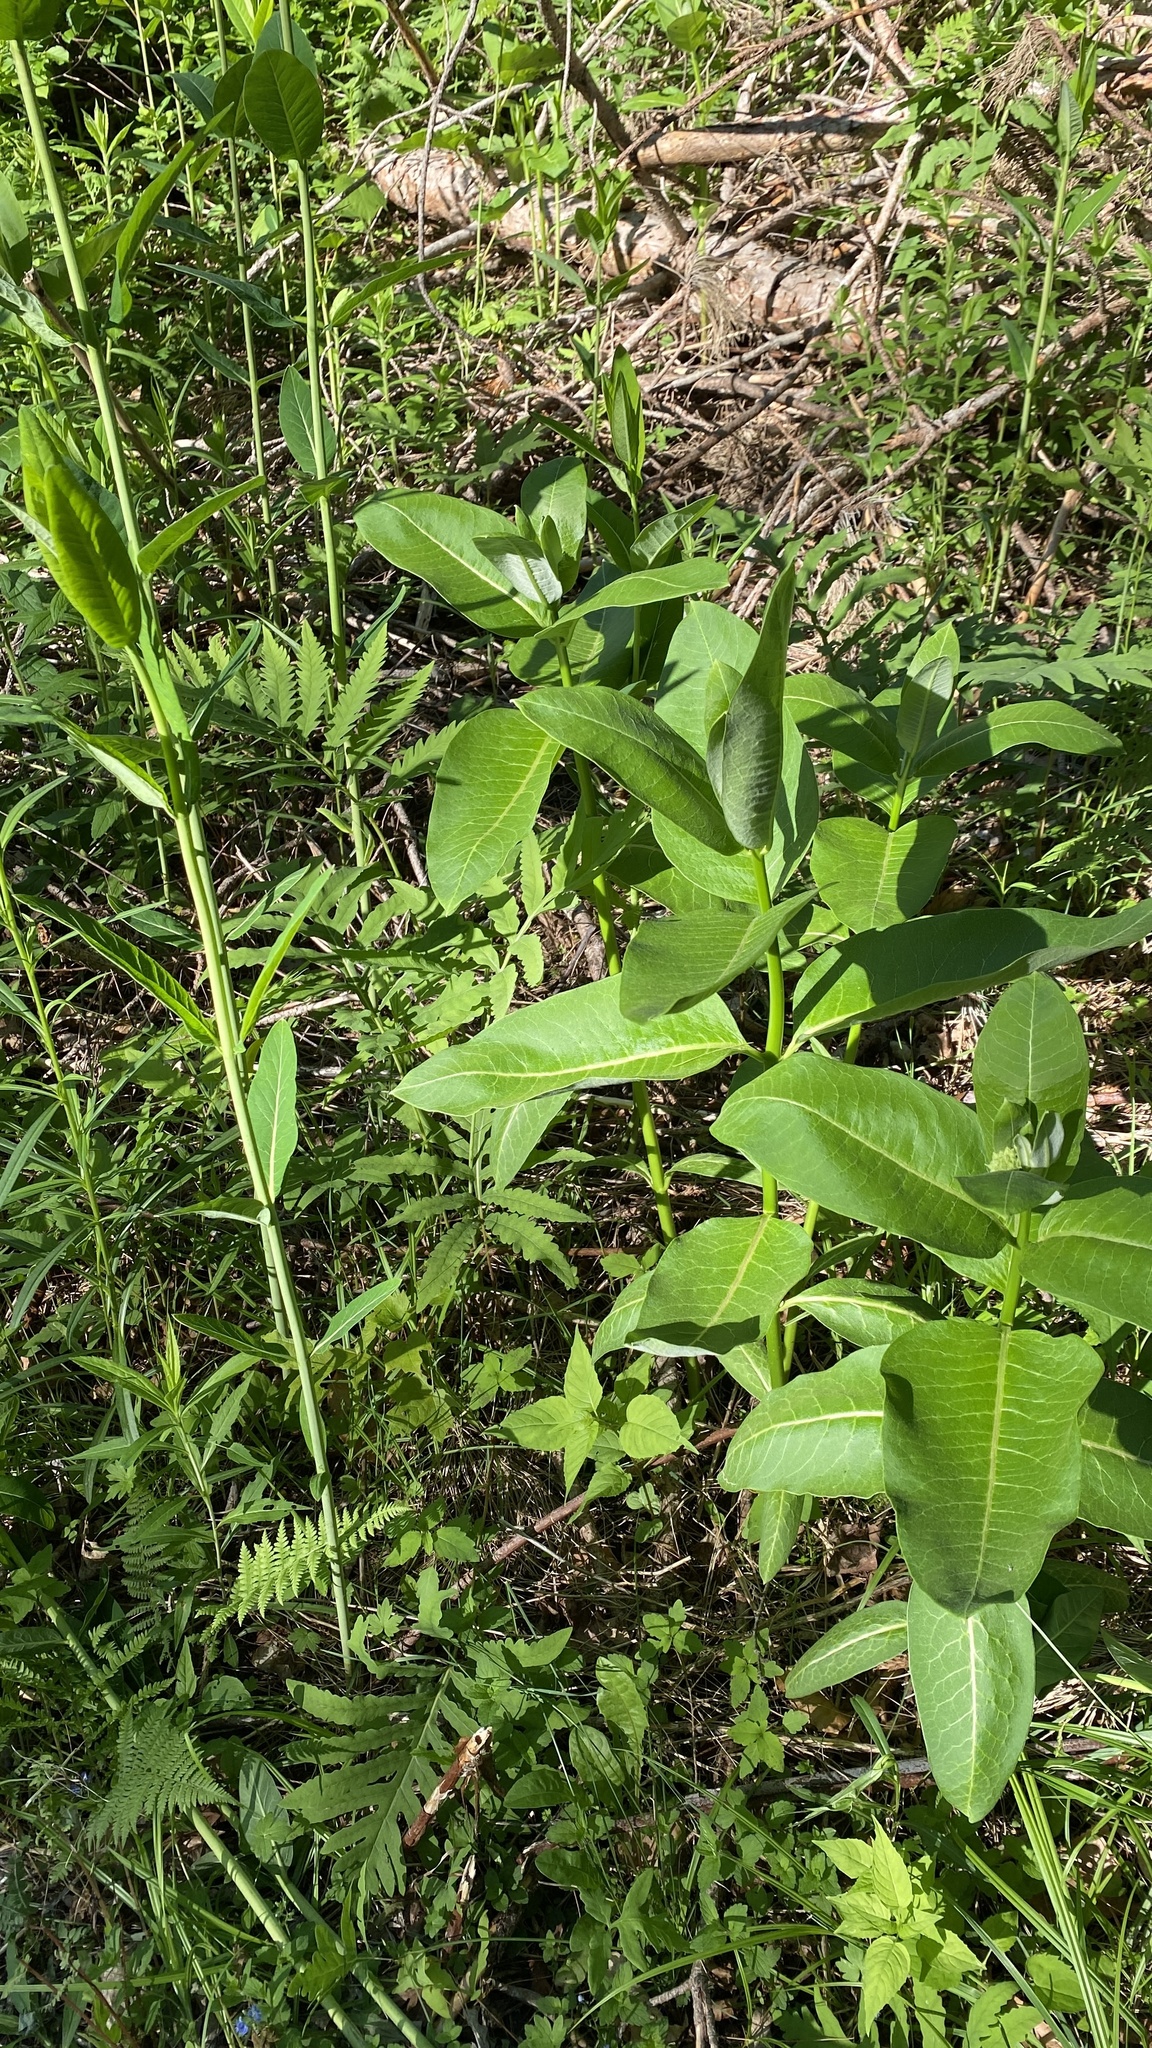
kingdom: Plantae
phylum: Tracheophyta
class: Magnoliopsida
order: Gentianales
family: Apocynaceae
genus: Asclepias
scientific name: Asclepias syriaca
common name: Common milkweed
